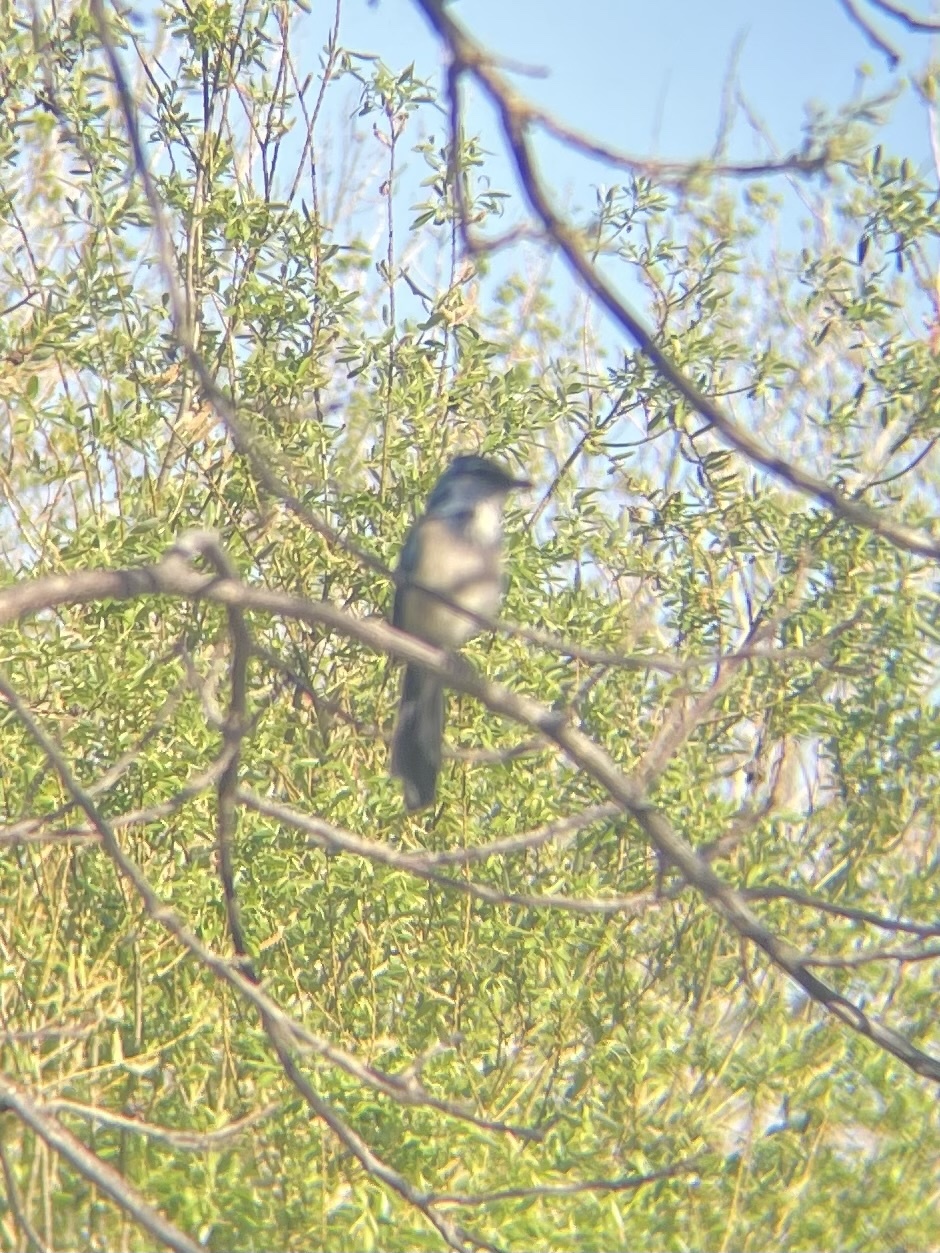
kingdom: Animalia
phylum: Chordata
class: Aves
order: Passeriformes
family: Corvidae
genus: Aphelocoma
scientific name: Aphelocoma californica
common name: California scrub-jay
